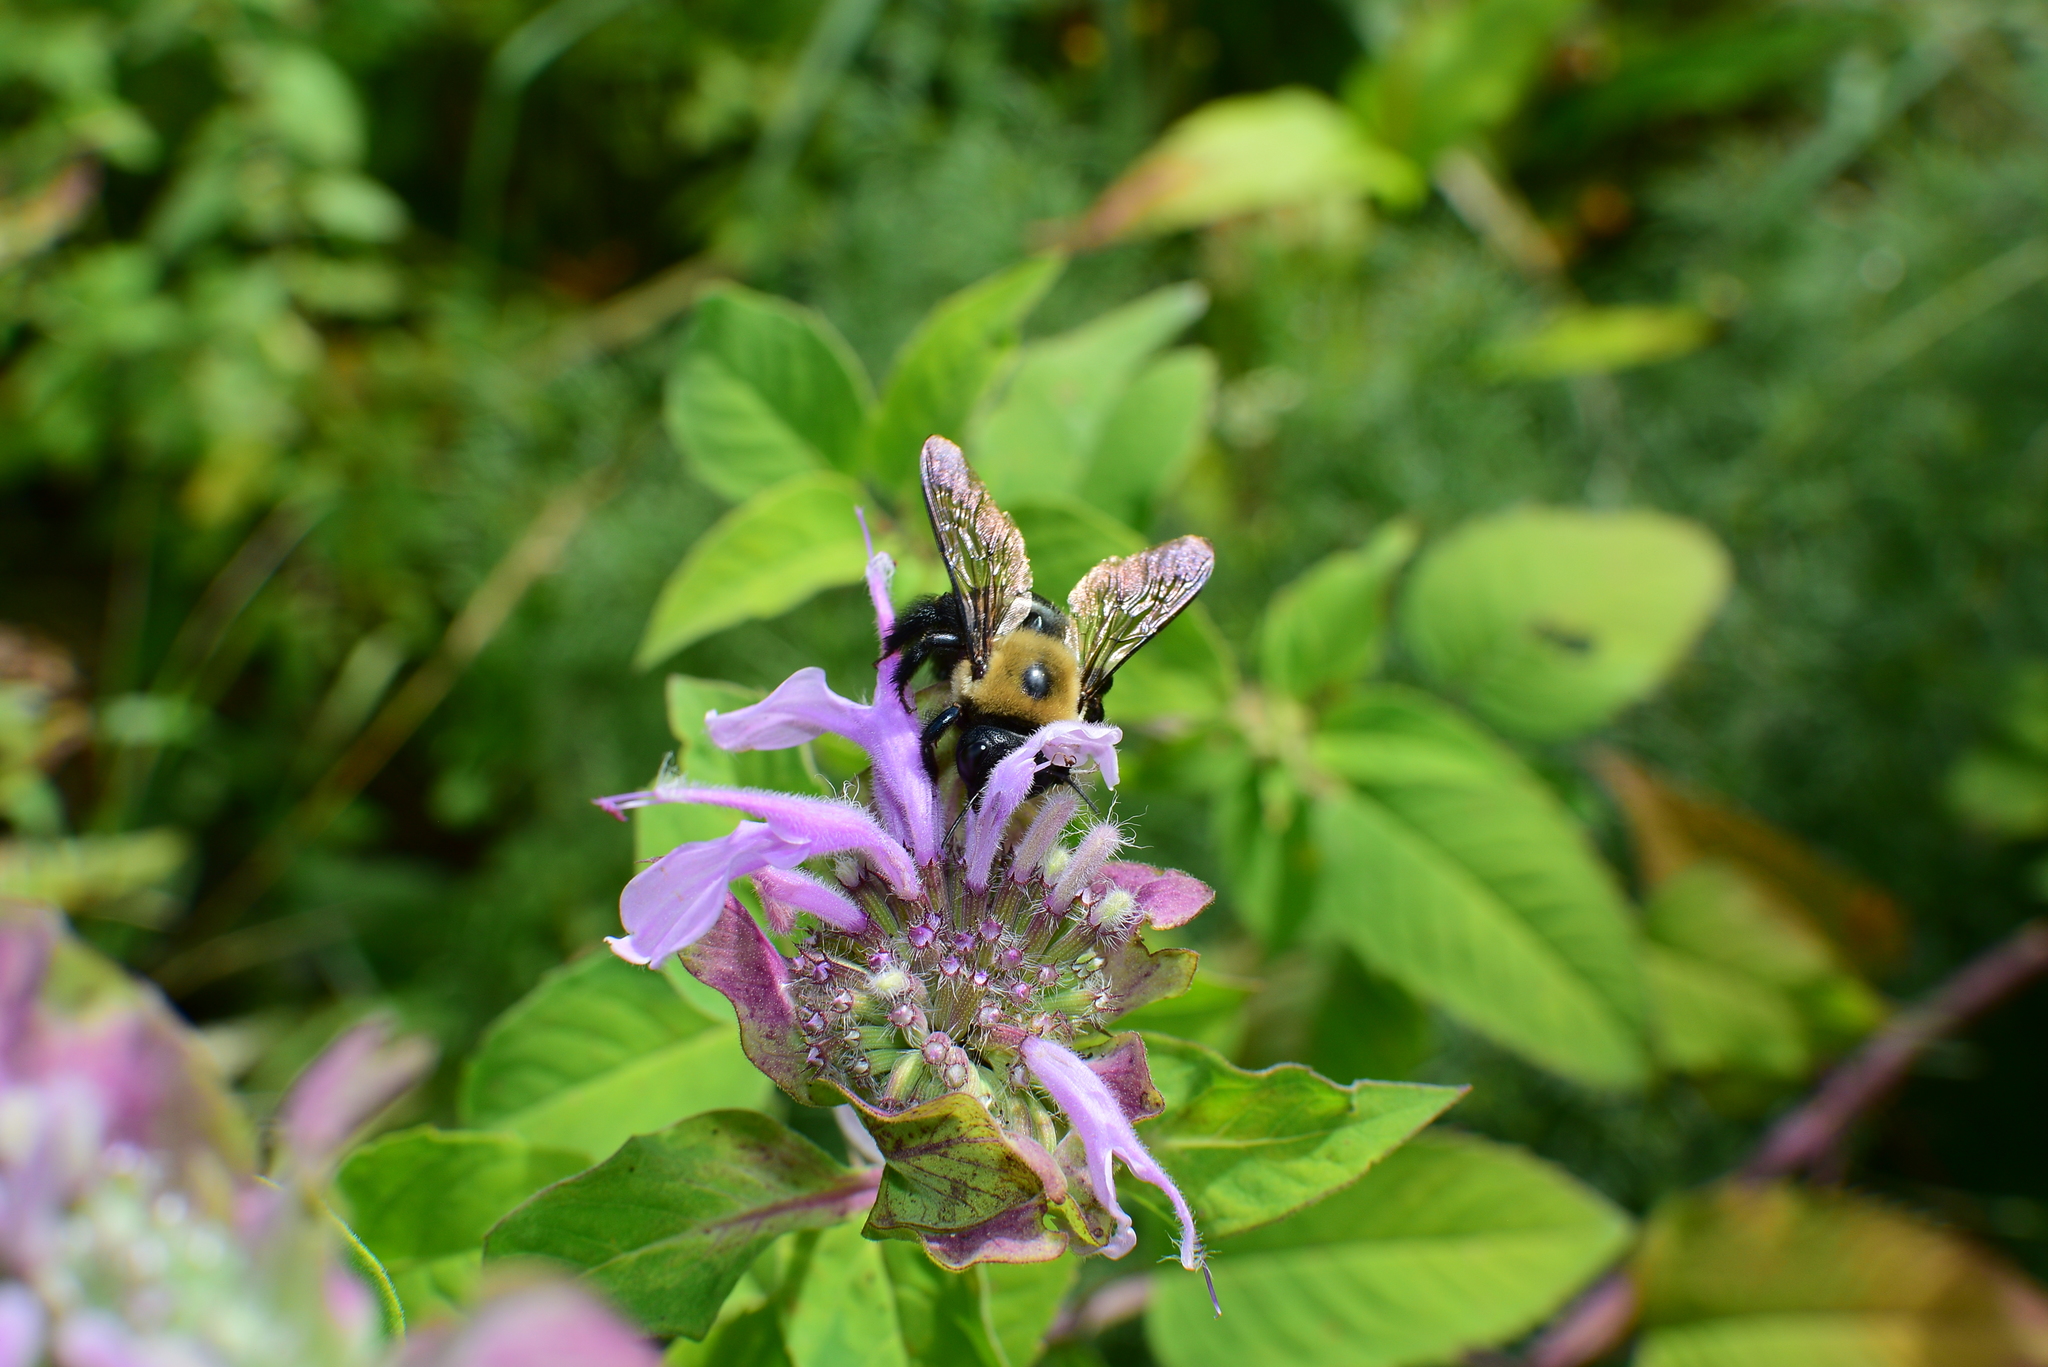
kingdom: Animalia
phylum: Arthropoda
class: Insecta
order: Hymenoptera
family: Apidae
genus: Xylocopa
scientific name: Xylocopa virginica
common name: Carpenter bee
